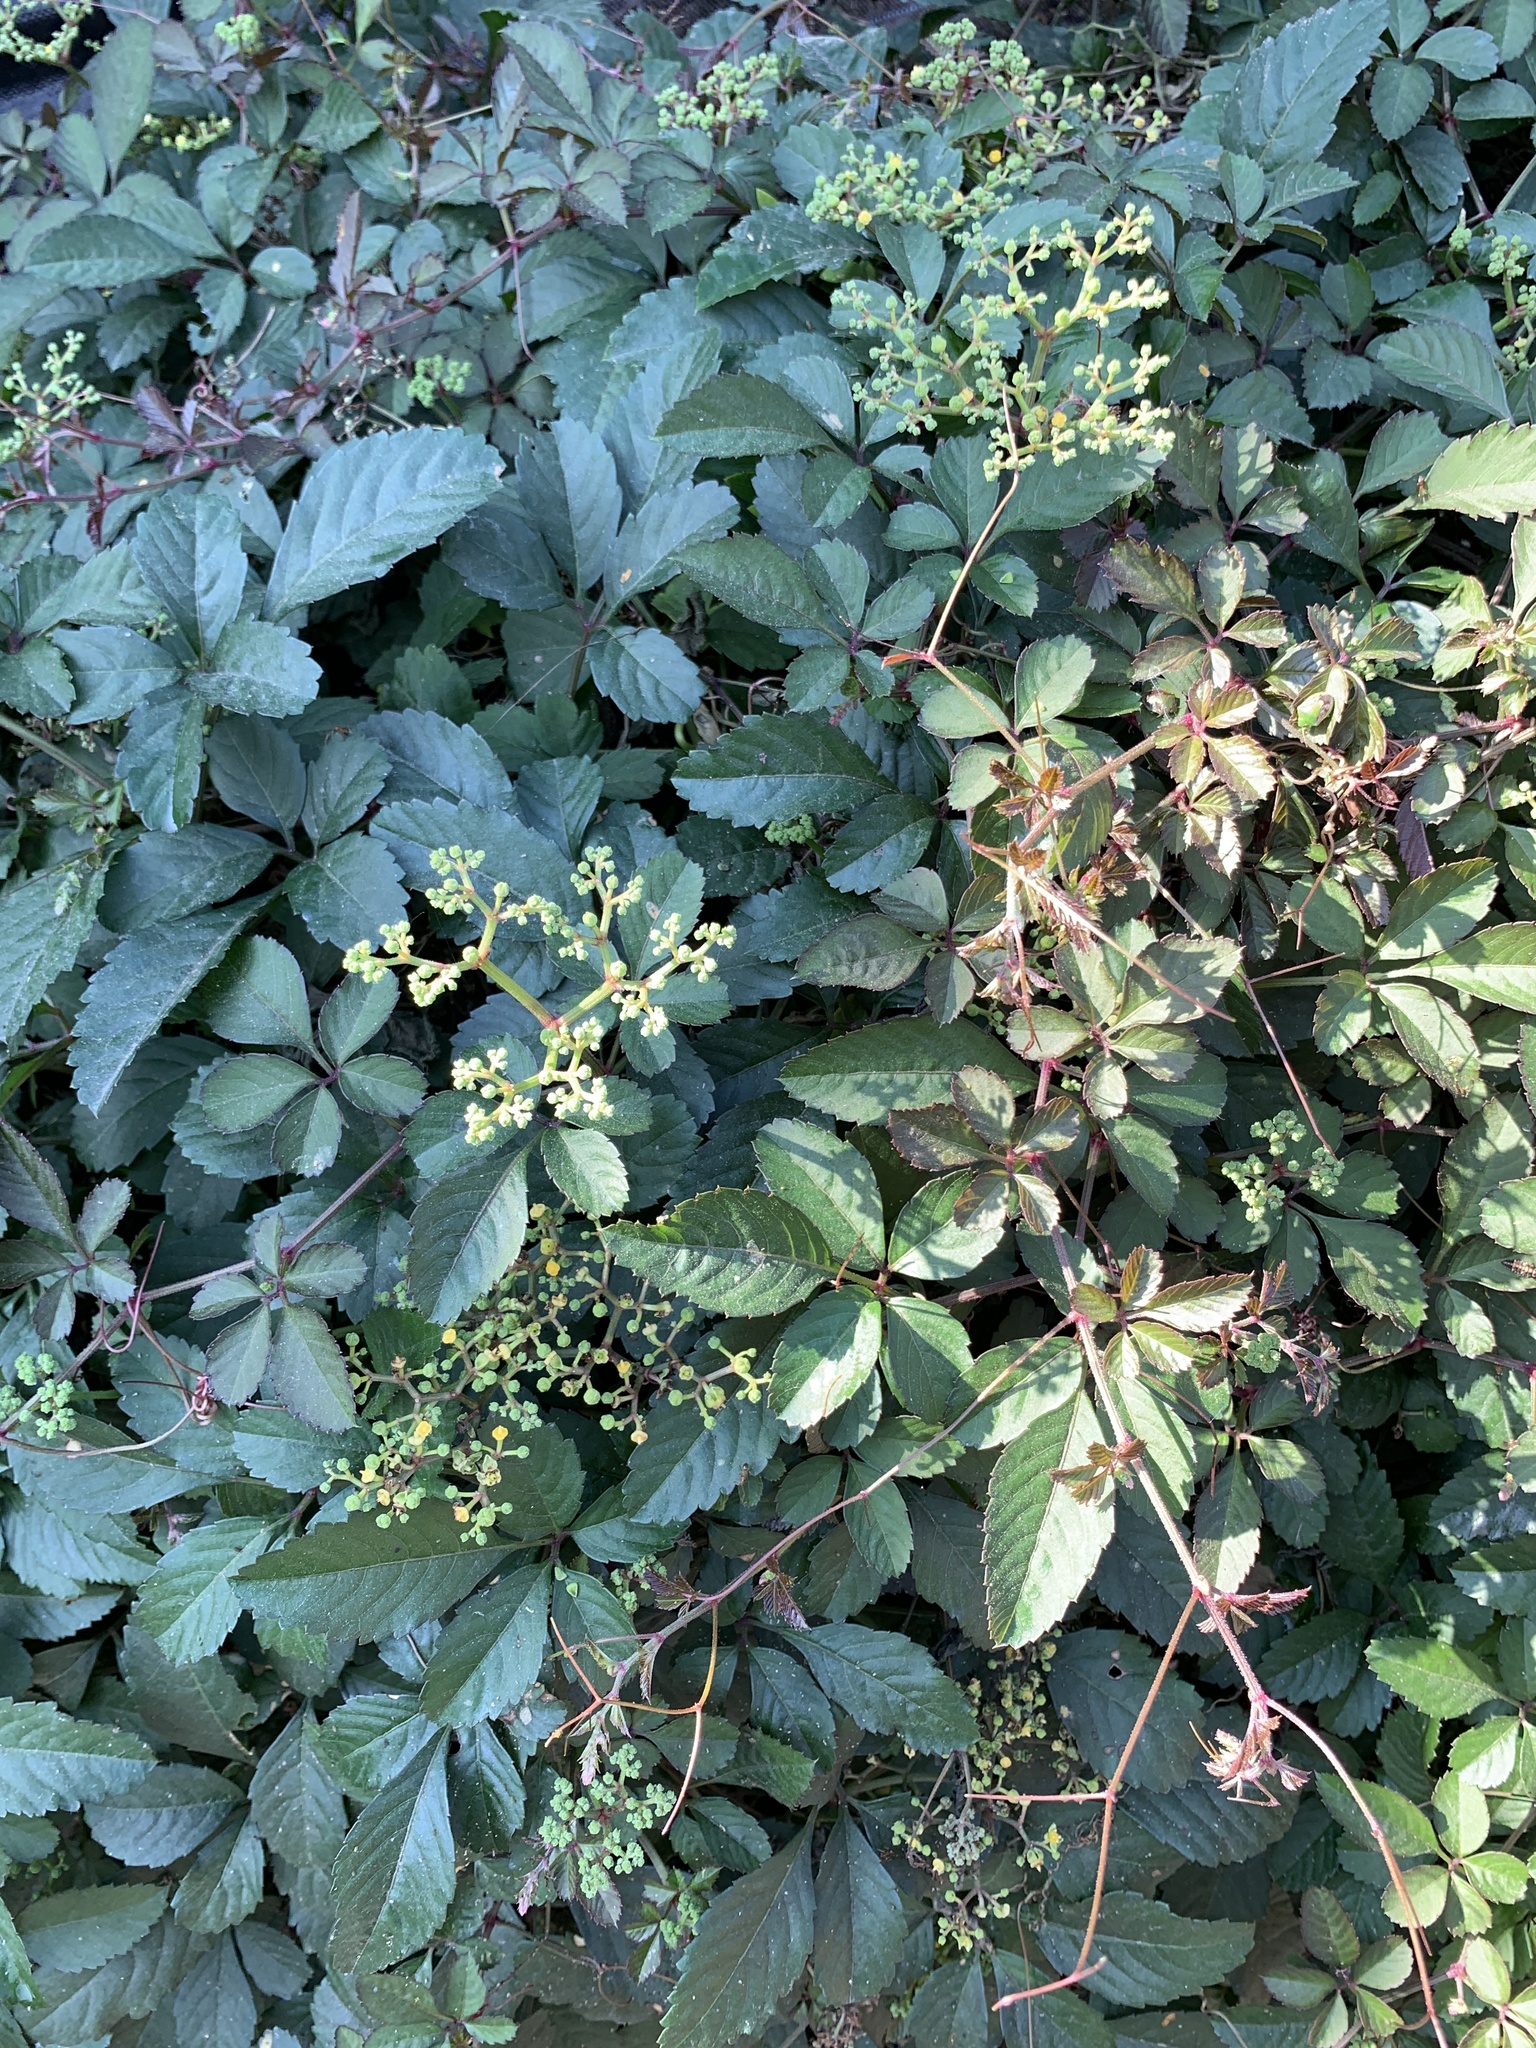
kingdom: Plantae
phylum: Tracheophyta
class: Magnoliopsida
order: Vitales
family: Vitaceae
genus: Causonis
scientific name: Causonis japonica
